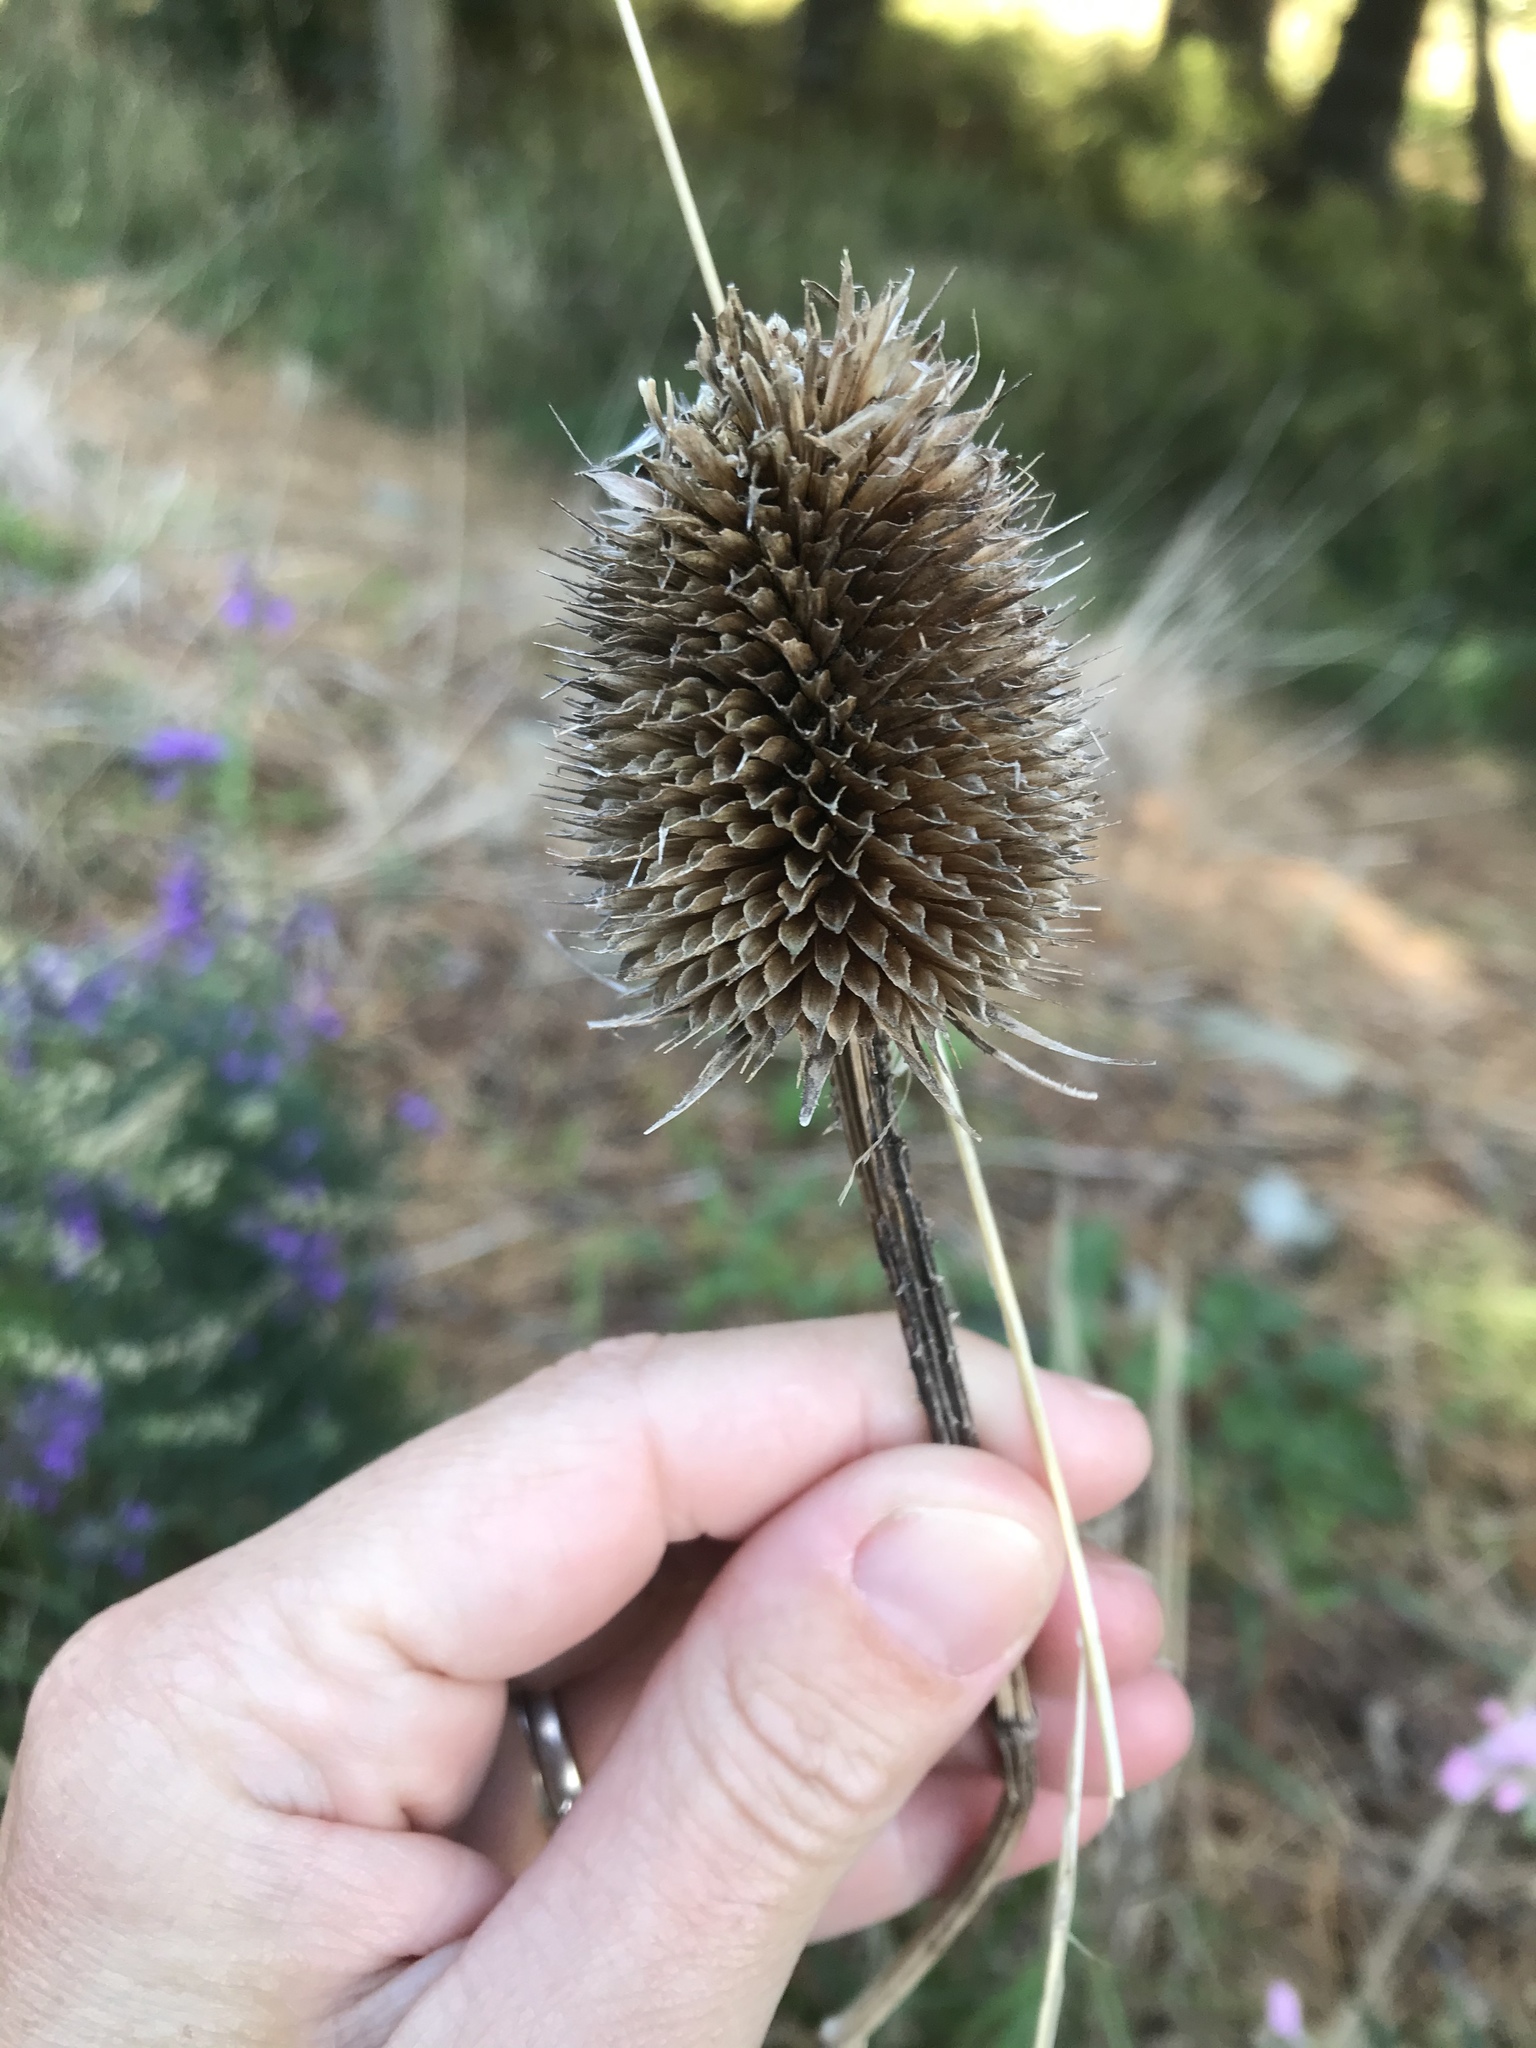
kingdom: Plantae
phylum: Tracheophyta
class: Magnoliopsida
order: Dipsacales
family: Caprifoliaceae
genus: Dipsacus
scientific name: Dipsacus fullonum
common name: Teasel
